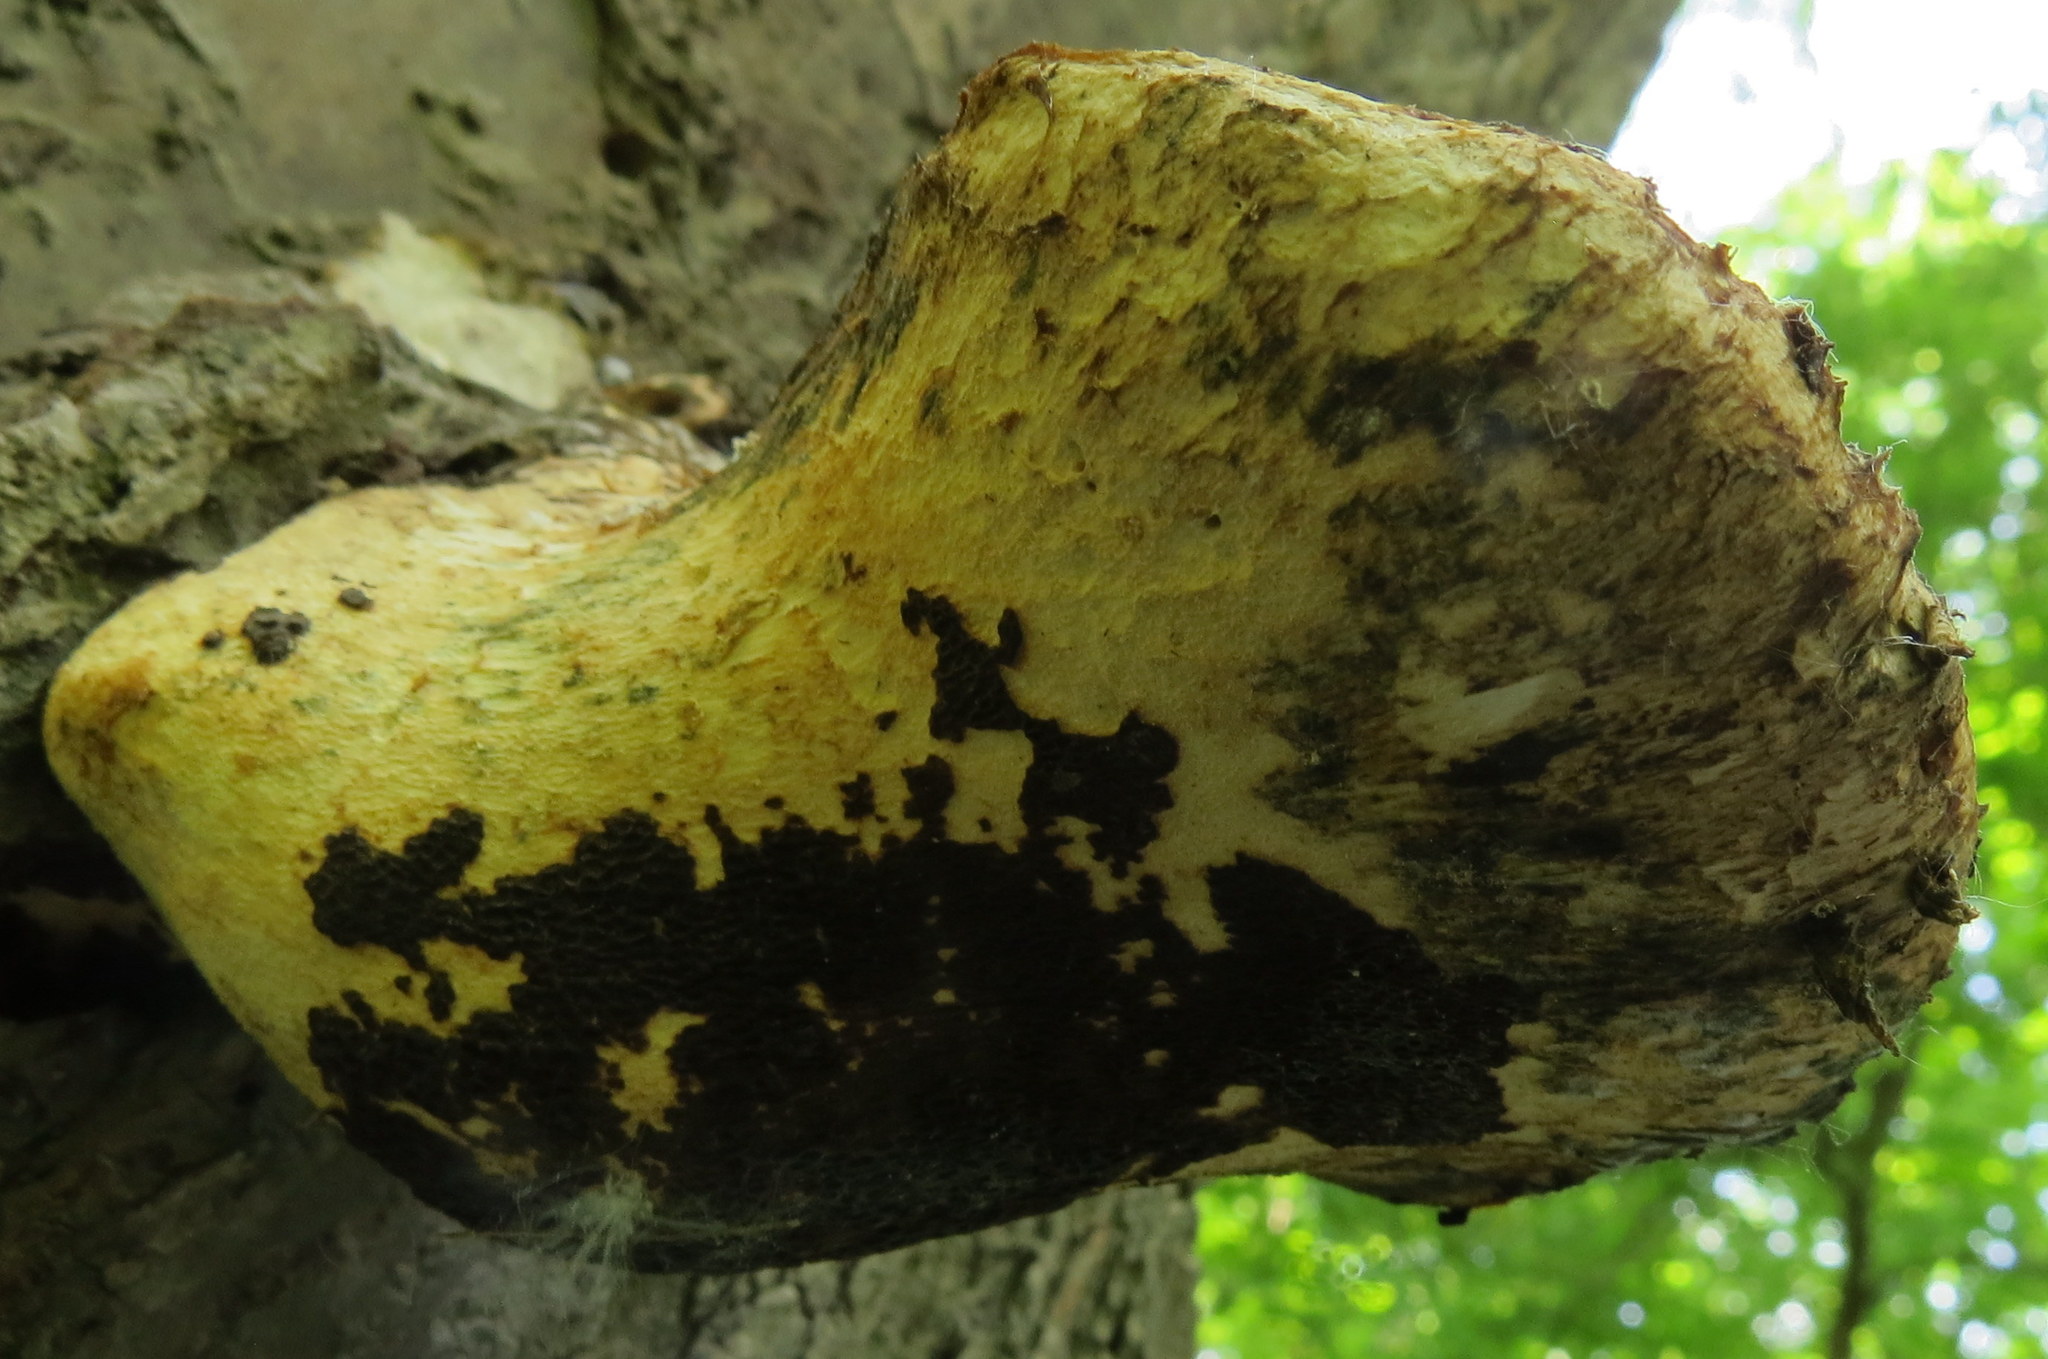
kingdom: Fungi
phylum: Basidiomycota
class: Agaricomycetes
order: Polyporales
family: Polyporaceae
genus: Cerioporus
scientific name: Cerioporus squamosus
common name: Dryad's saddle
